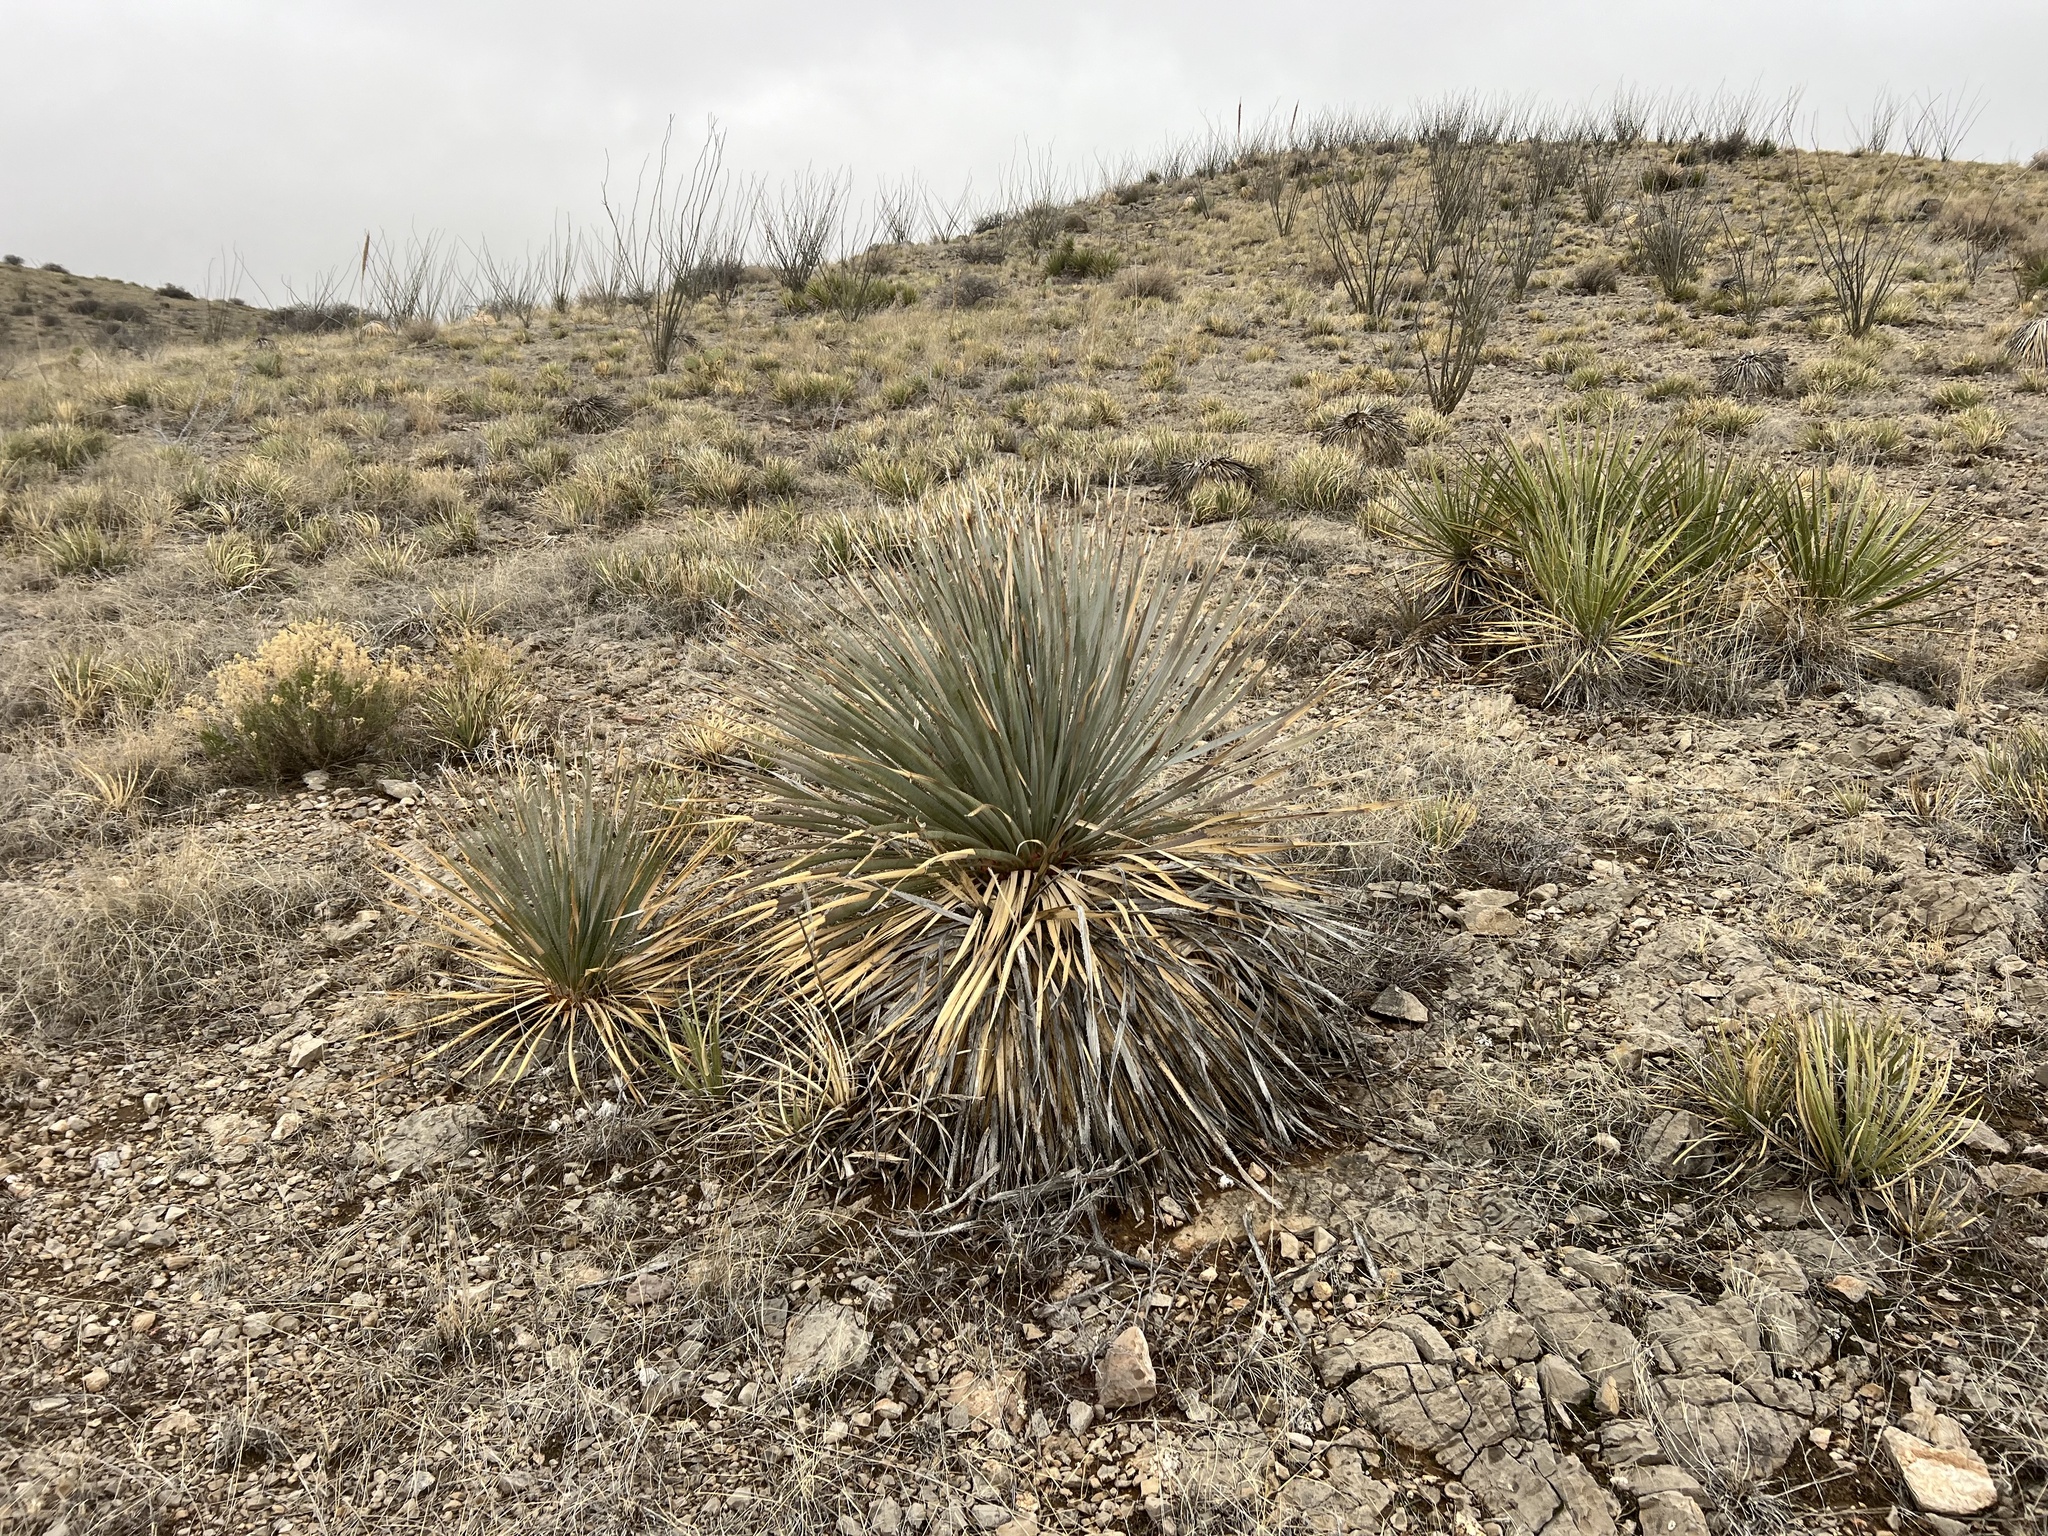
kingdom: Plantae
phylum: Tracheophyta
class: Liliopsida
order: Asparagales
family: Asparagaceae
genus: Dasylirion
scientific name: Dasylirion wheeleri
